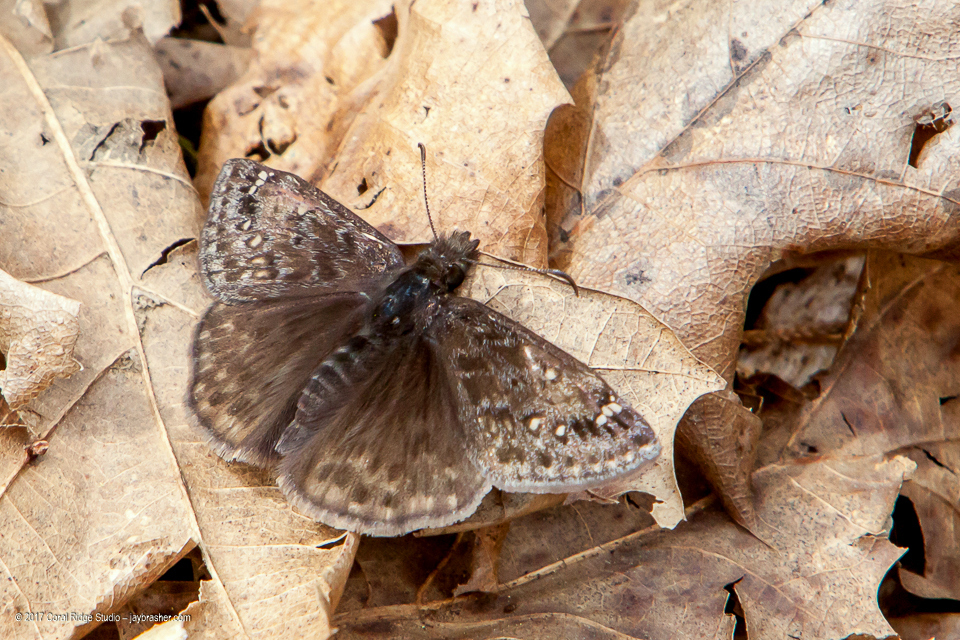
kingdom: Animalia
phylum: Arthropoda
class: Insecta
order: Lepidoptera
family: Hesperiidae
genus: Erynnis
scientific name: Erynnis juvenalis
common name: Juvenal's duskywing
